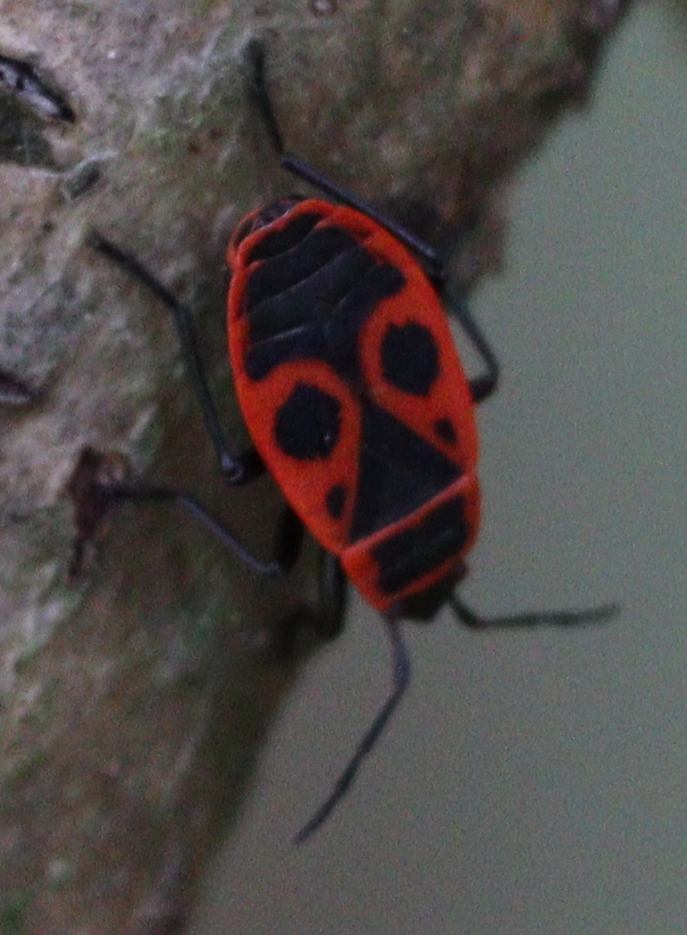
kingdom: Animalia
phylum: Arthropoda
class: Insecta
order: Hemiptera
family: Pyrrhocoridae
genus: Pyrrhocoris
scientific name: Pyrrhocoris apterus
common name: Firebug
